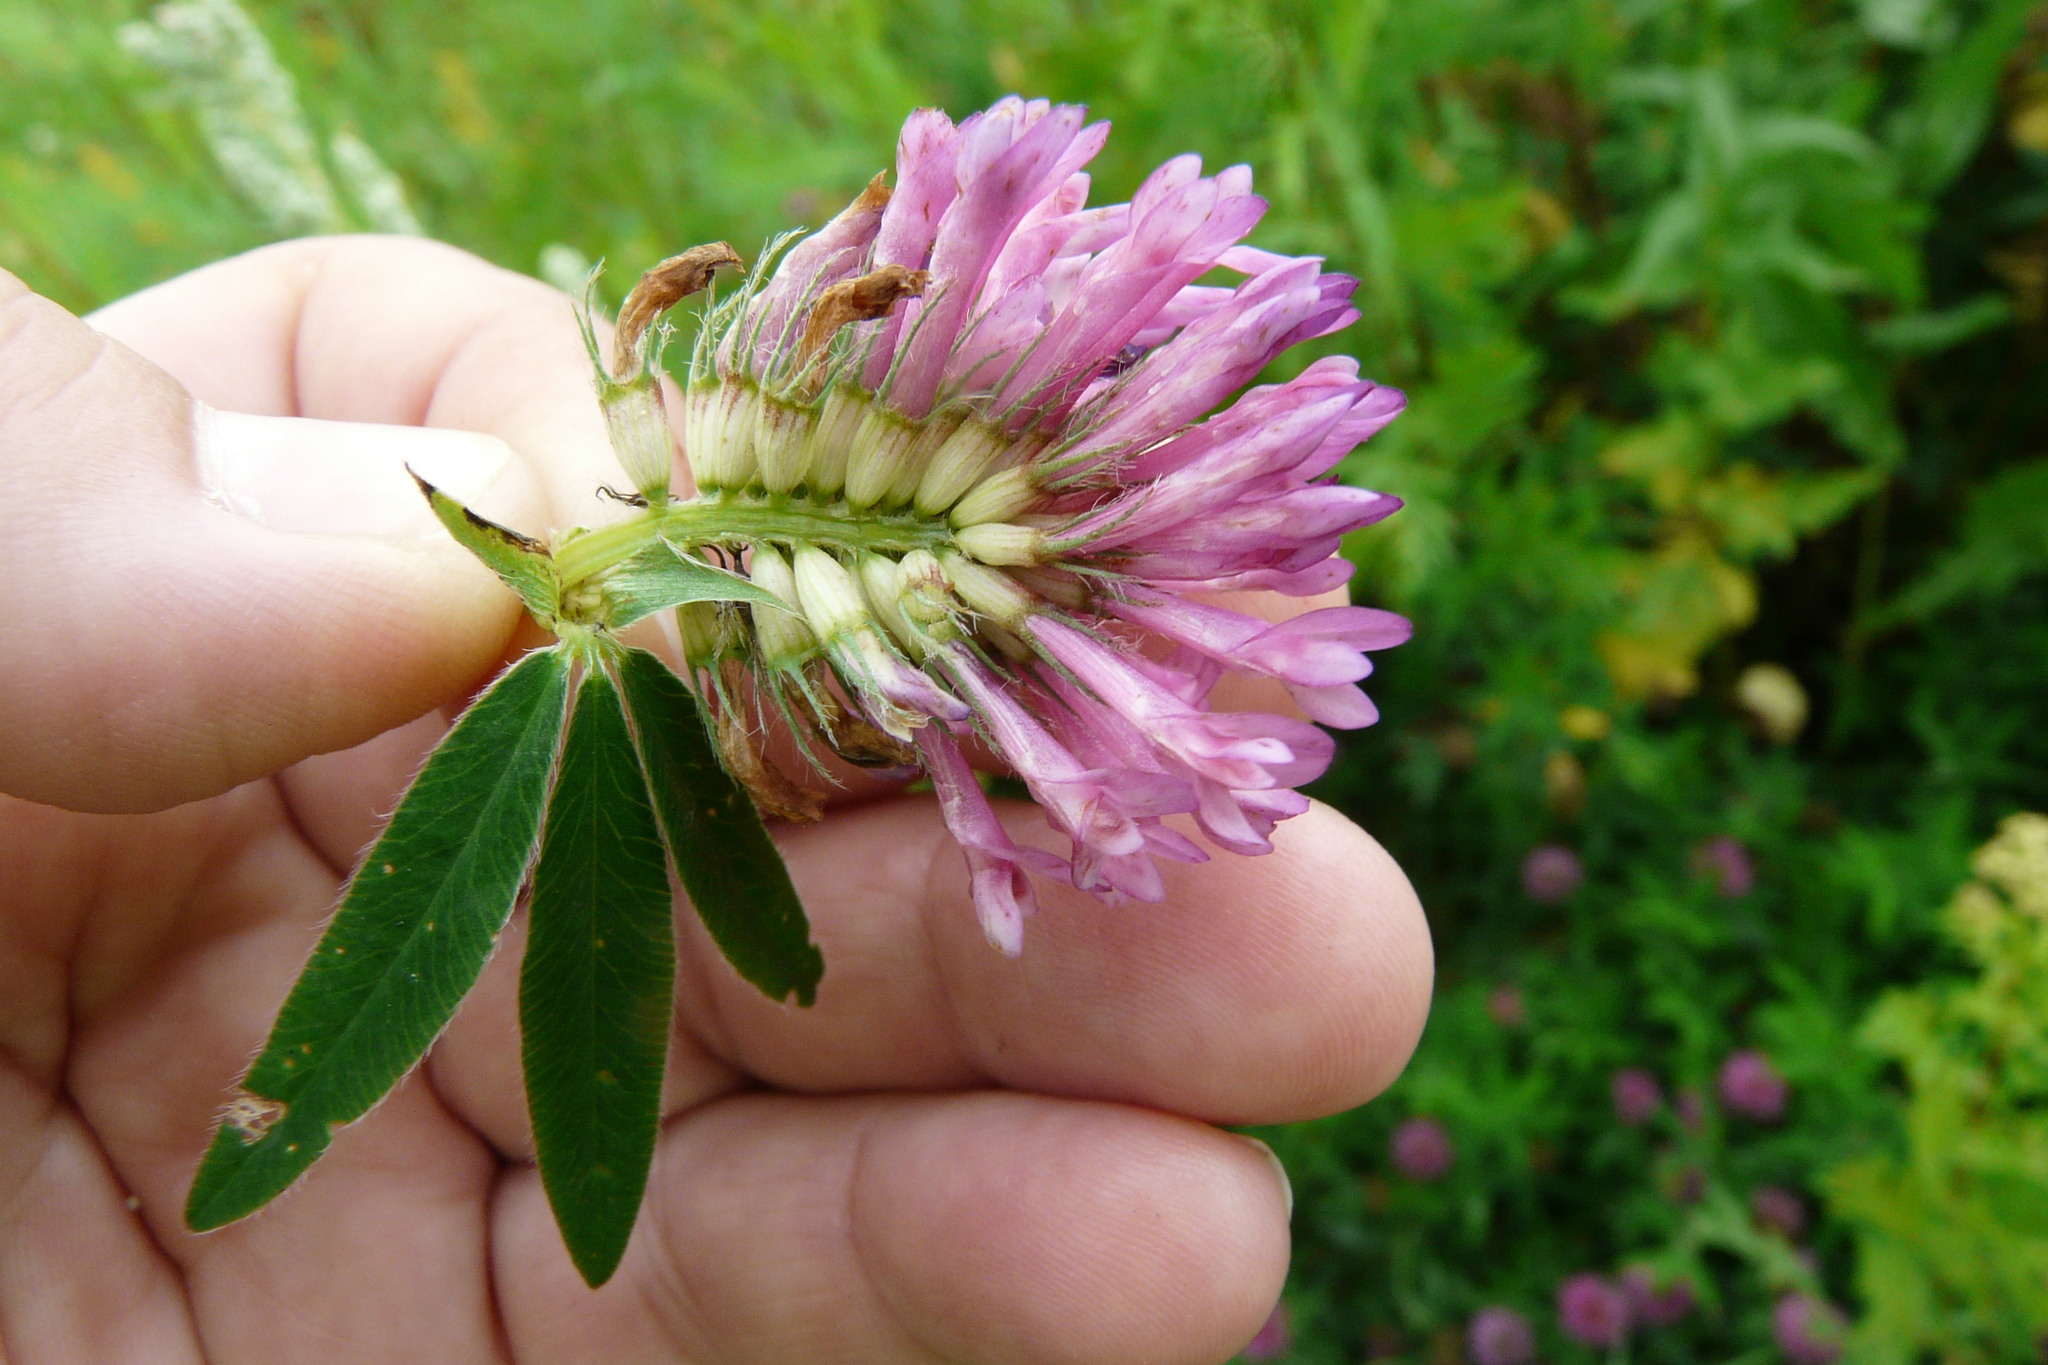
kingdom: Plantae
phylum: Tracheophyta
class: Magnoliopsida
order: Fabales
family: Fabaceae
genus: Trifolium
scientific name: Trifolium medium
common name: Zigzag clover
